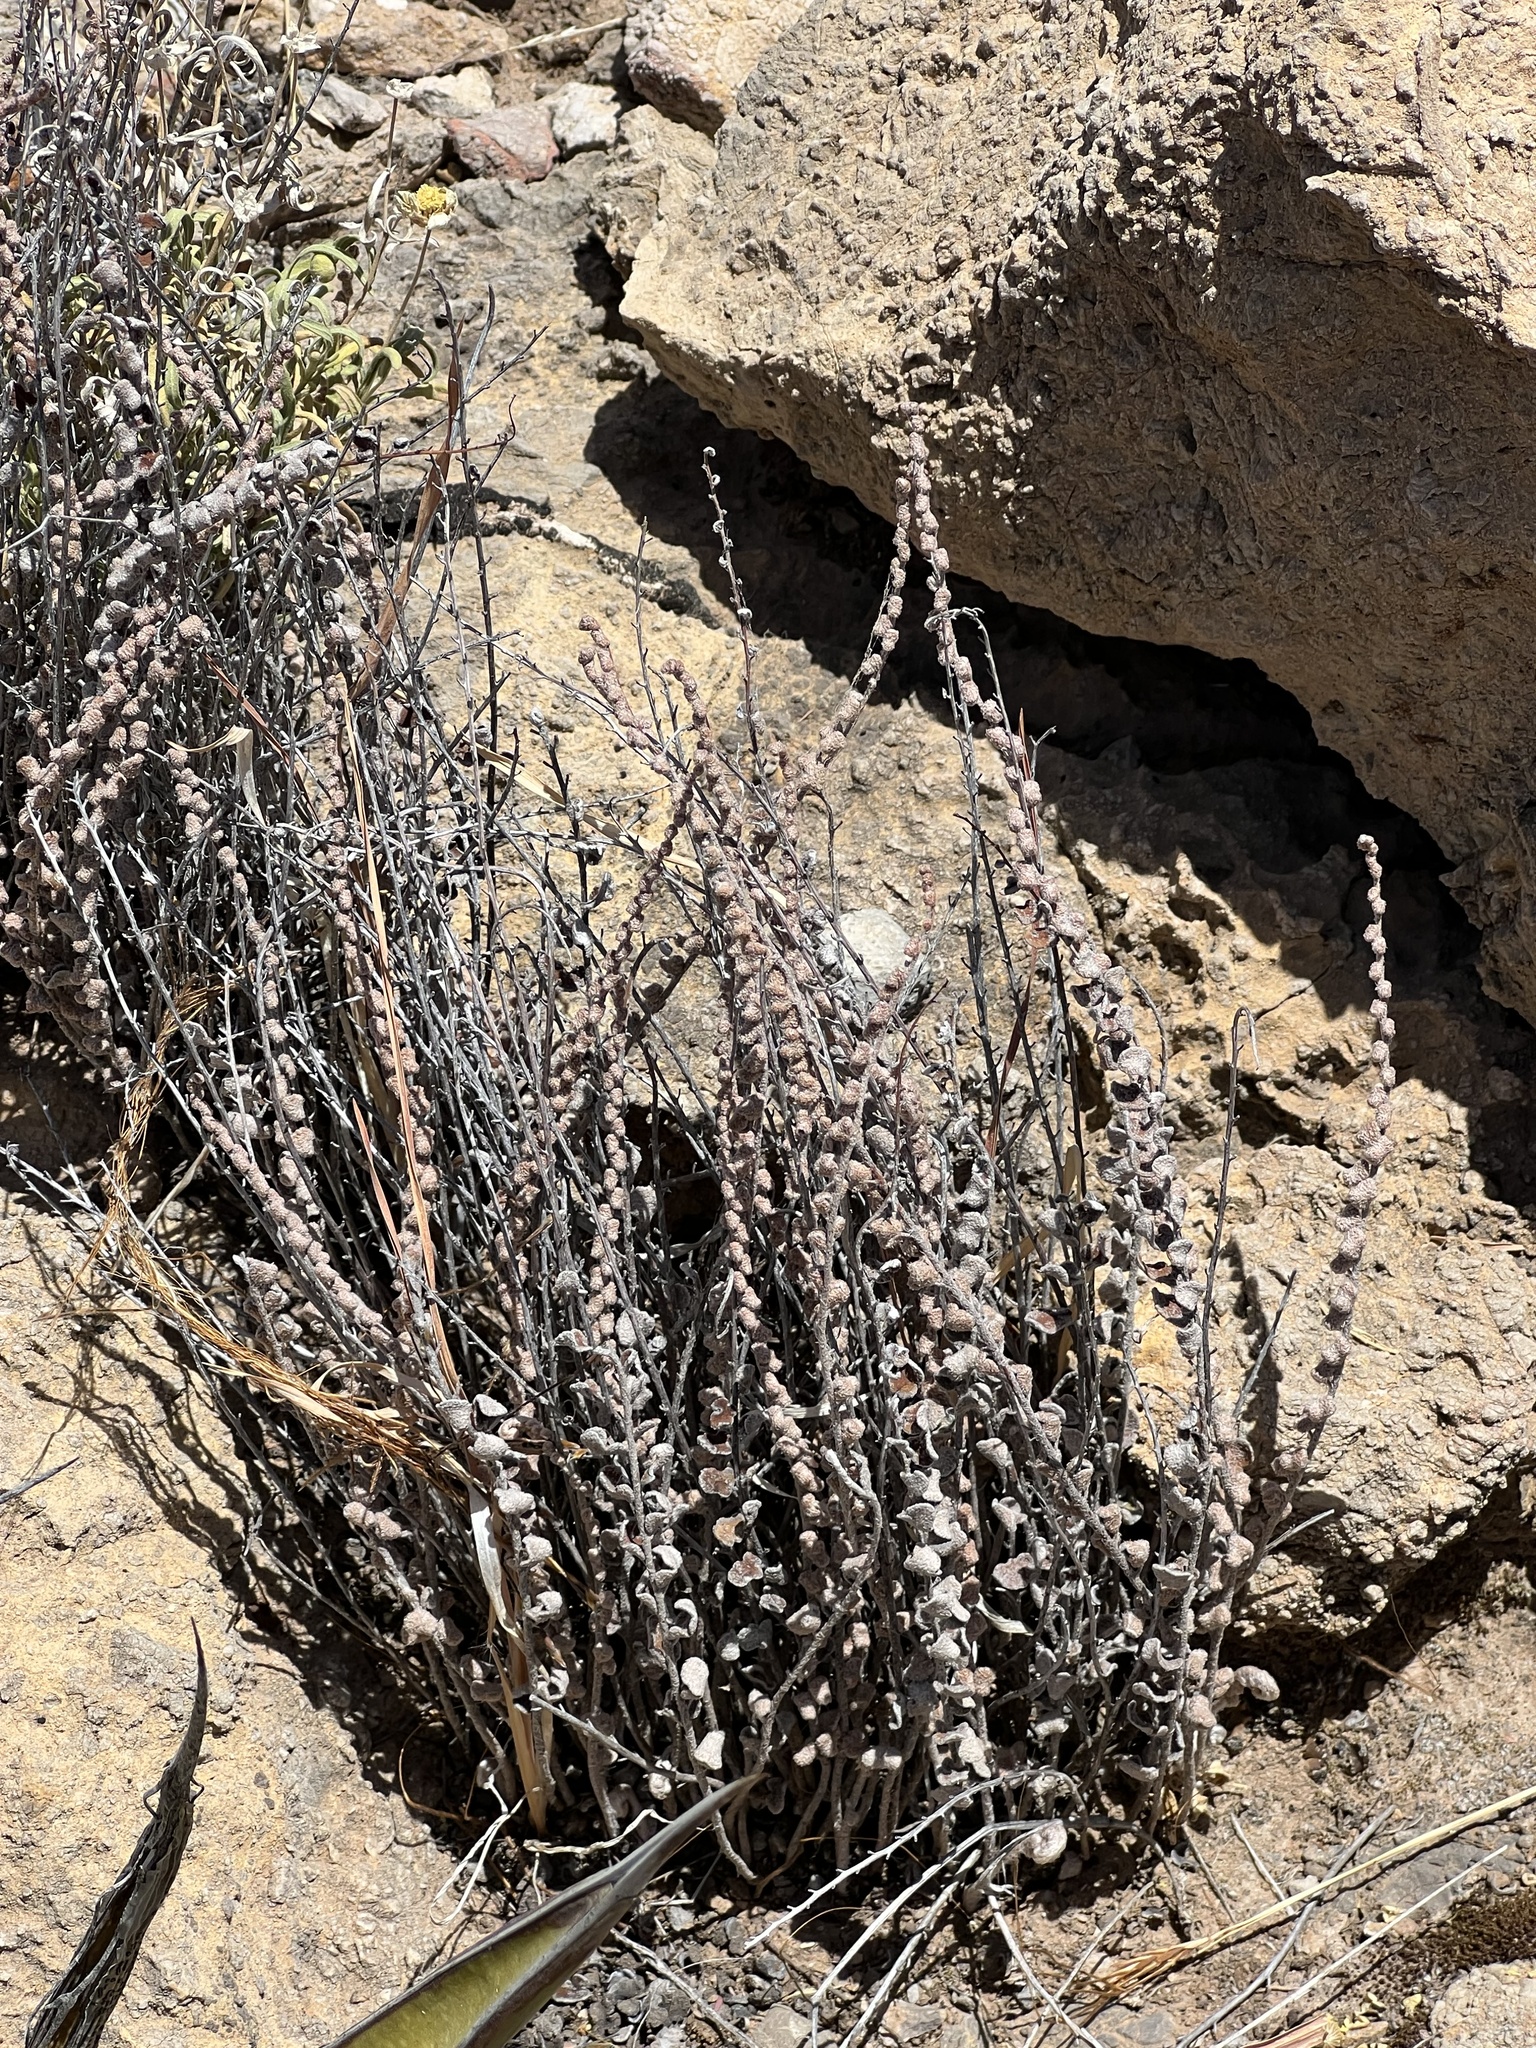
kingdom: Plantae
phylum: Tracheophyta
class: Polypodiopsida
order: Polypodiales
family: Pteridaceae
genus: Astrolepis
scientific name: Astrolepis cochisensis
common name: Scaly cloak fern
